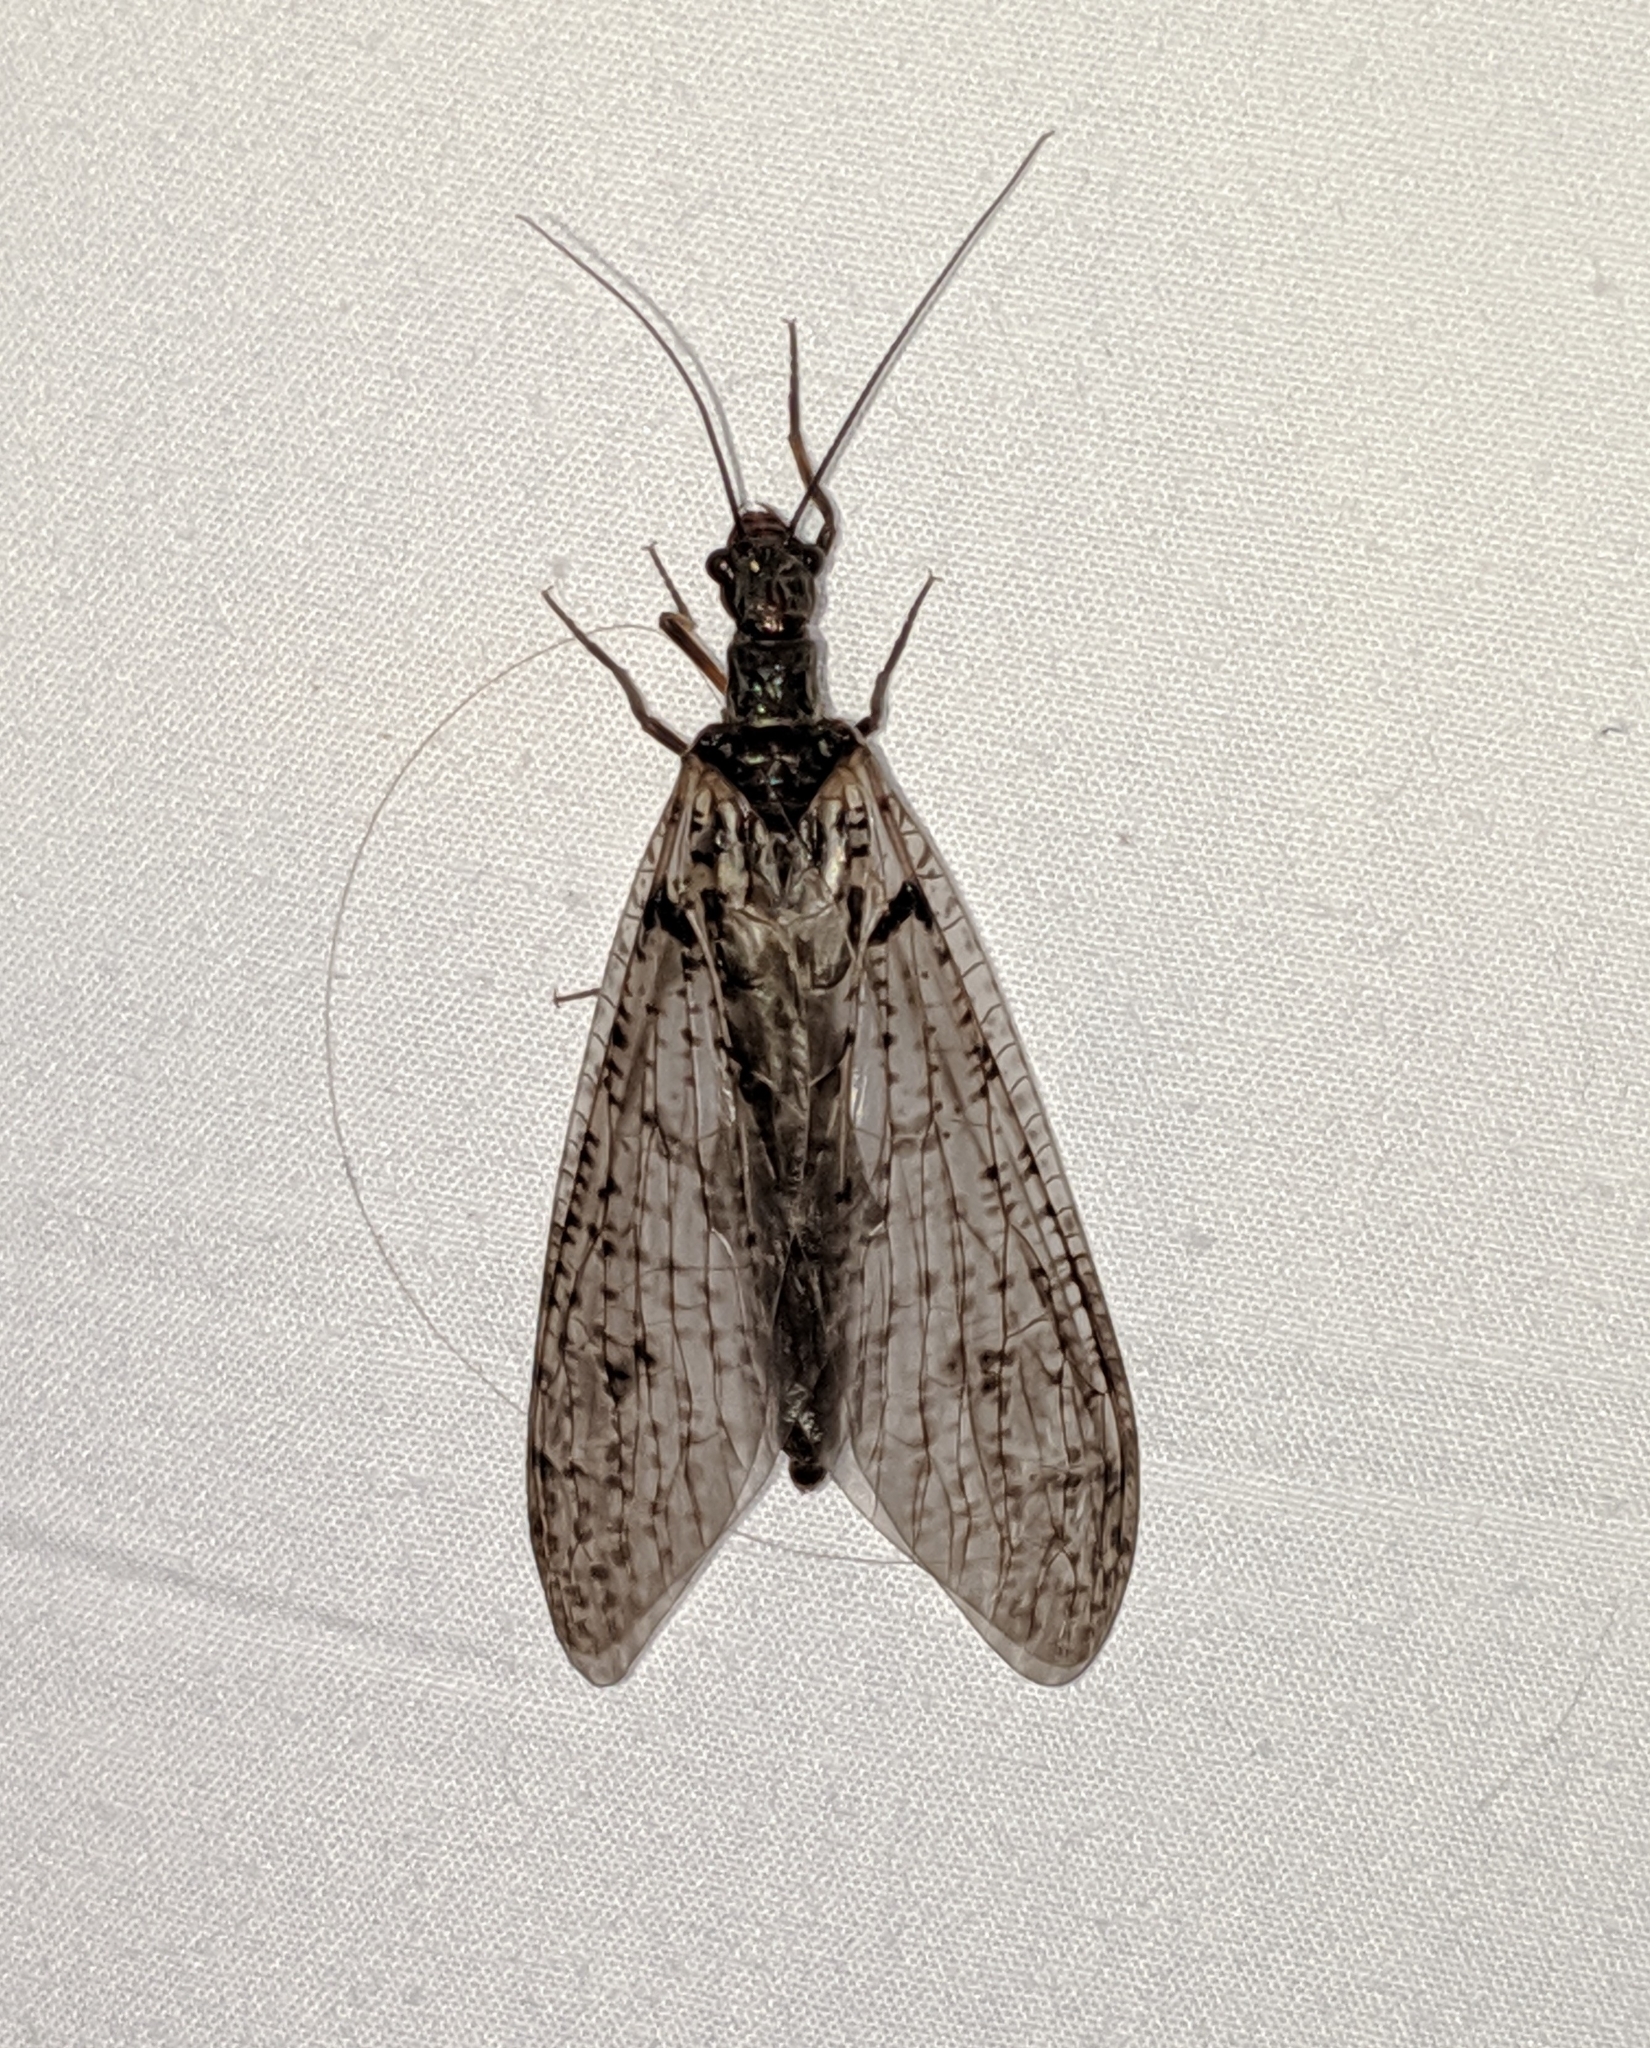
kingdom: Animalia
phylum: Arthropoda
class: Insecta
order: Megaloptera
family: Corydalidae
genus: Protochauliodes
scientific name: Protochauliodes spenceri
